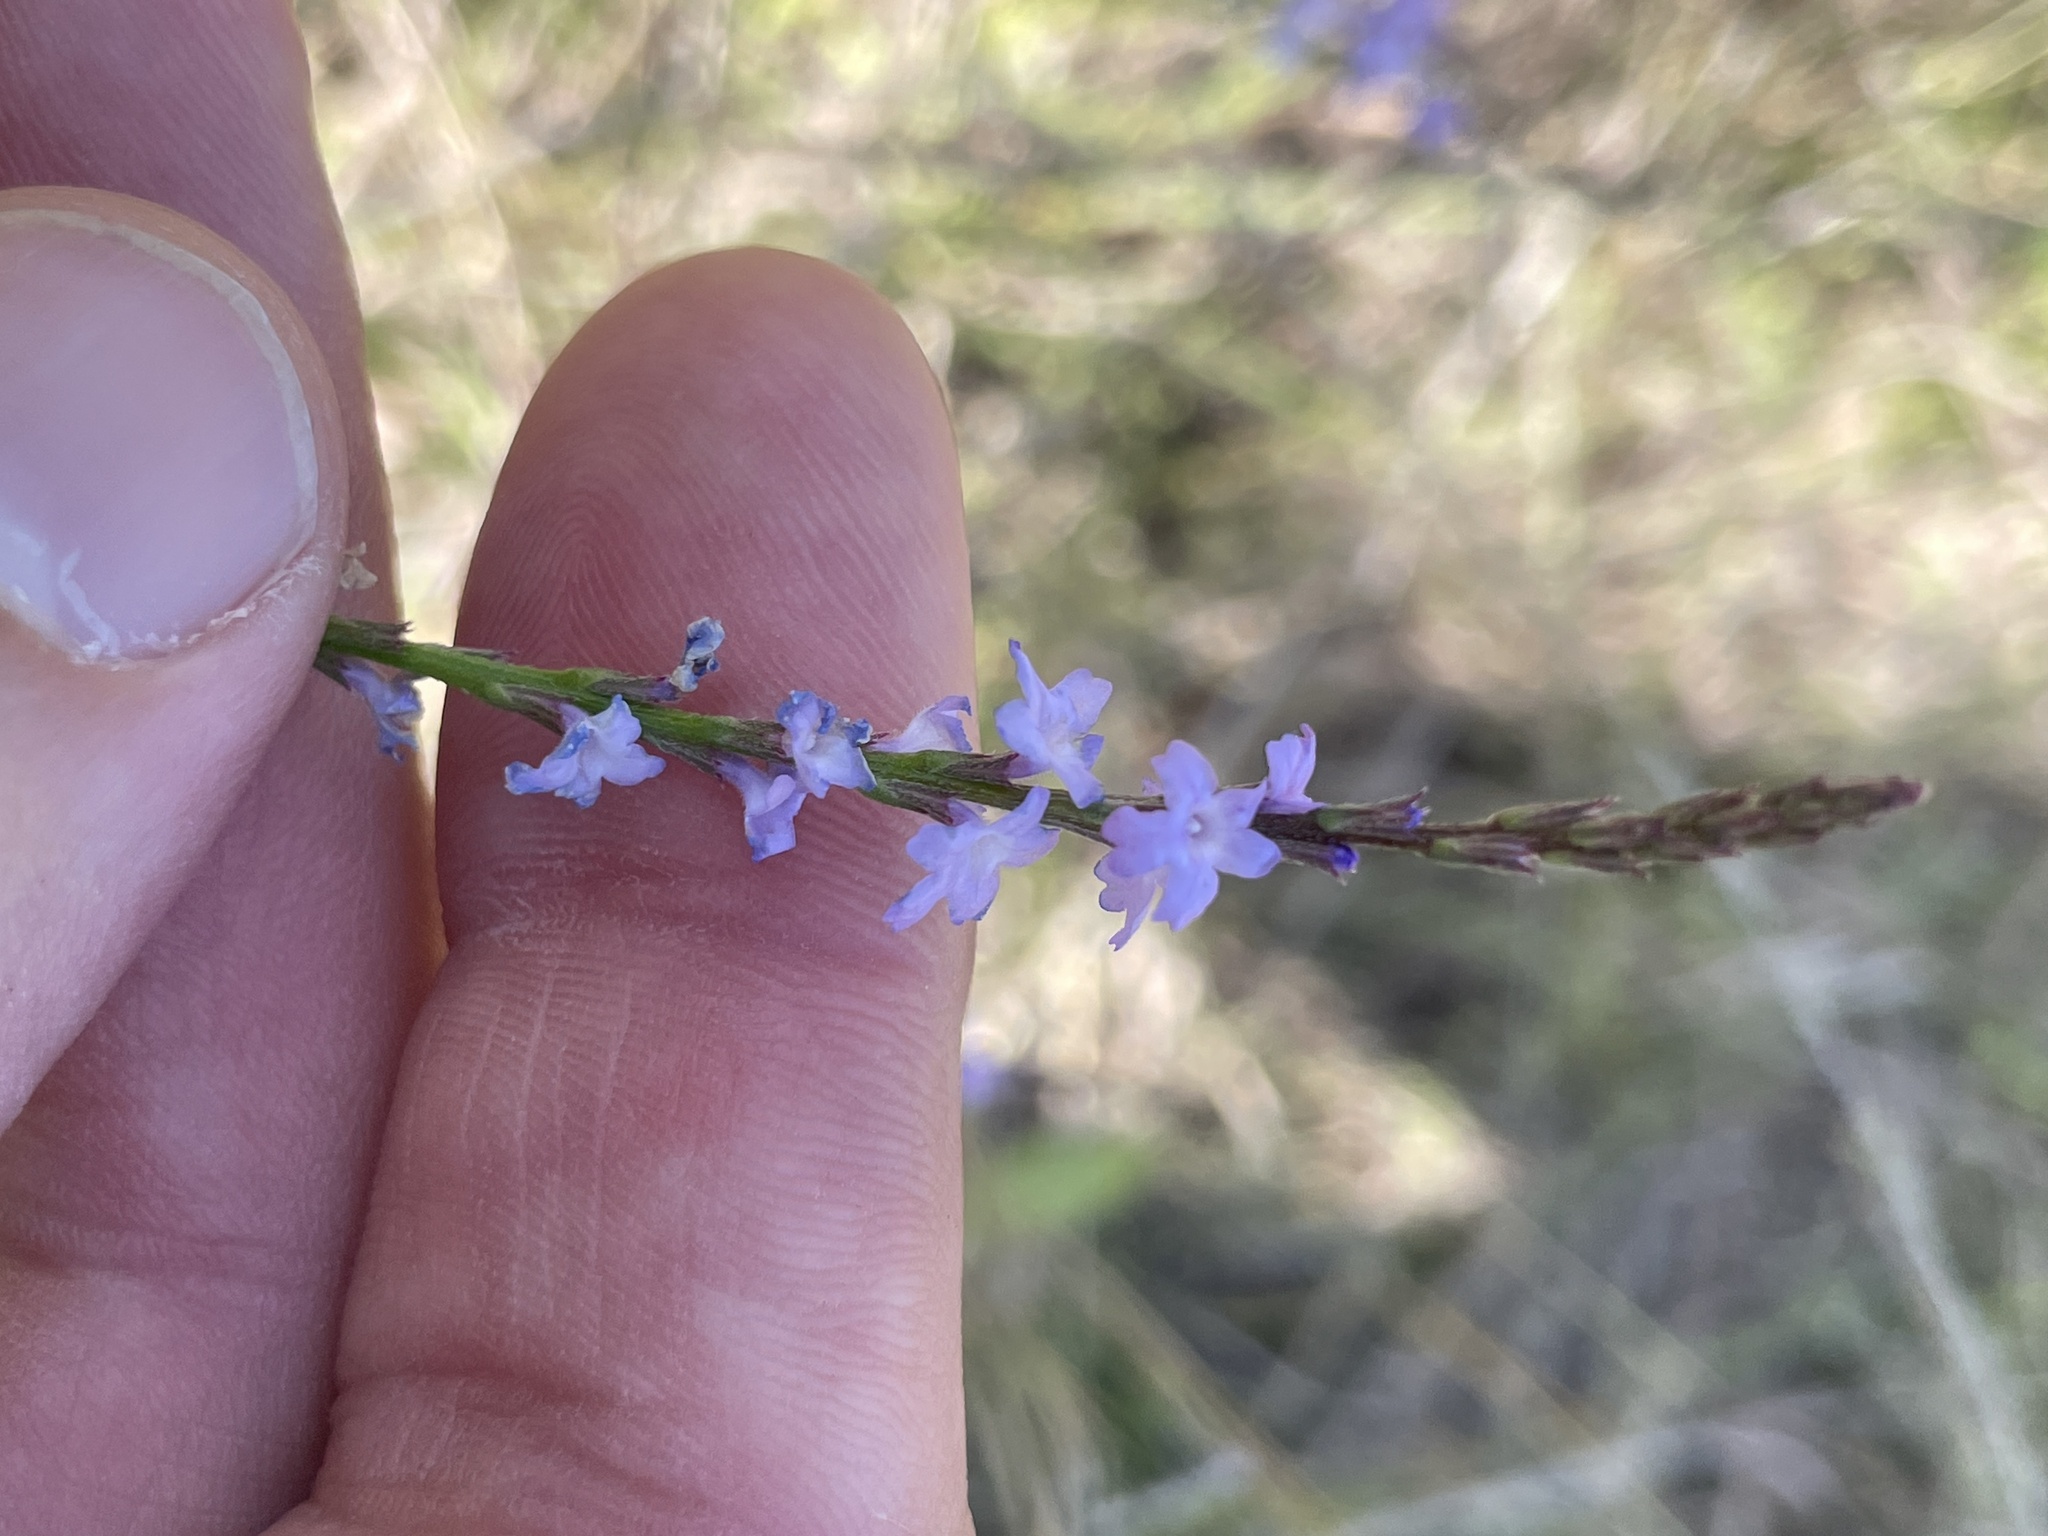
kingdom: Plantae
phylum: Tracheophyta
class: Magnoliopsida
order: Lamiales
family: Verbenaceae
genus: Verbena
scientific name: Verbena halei
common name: Texas vervain
